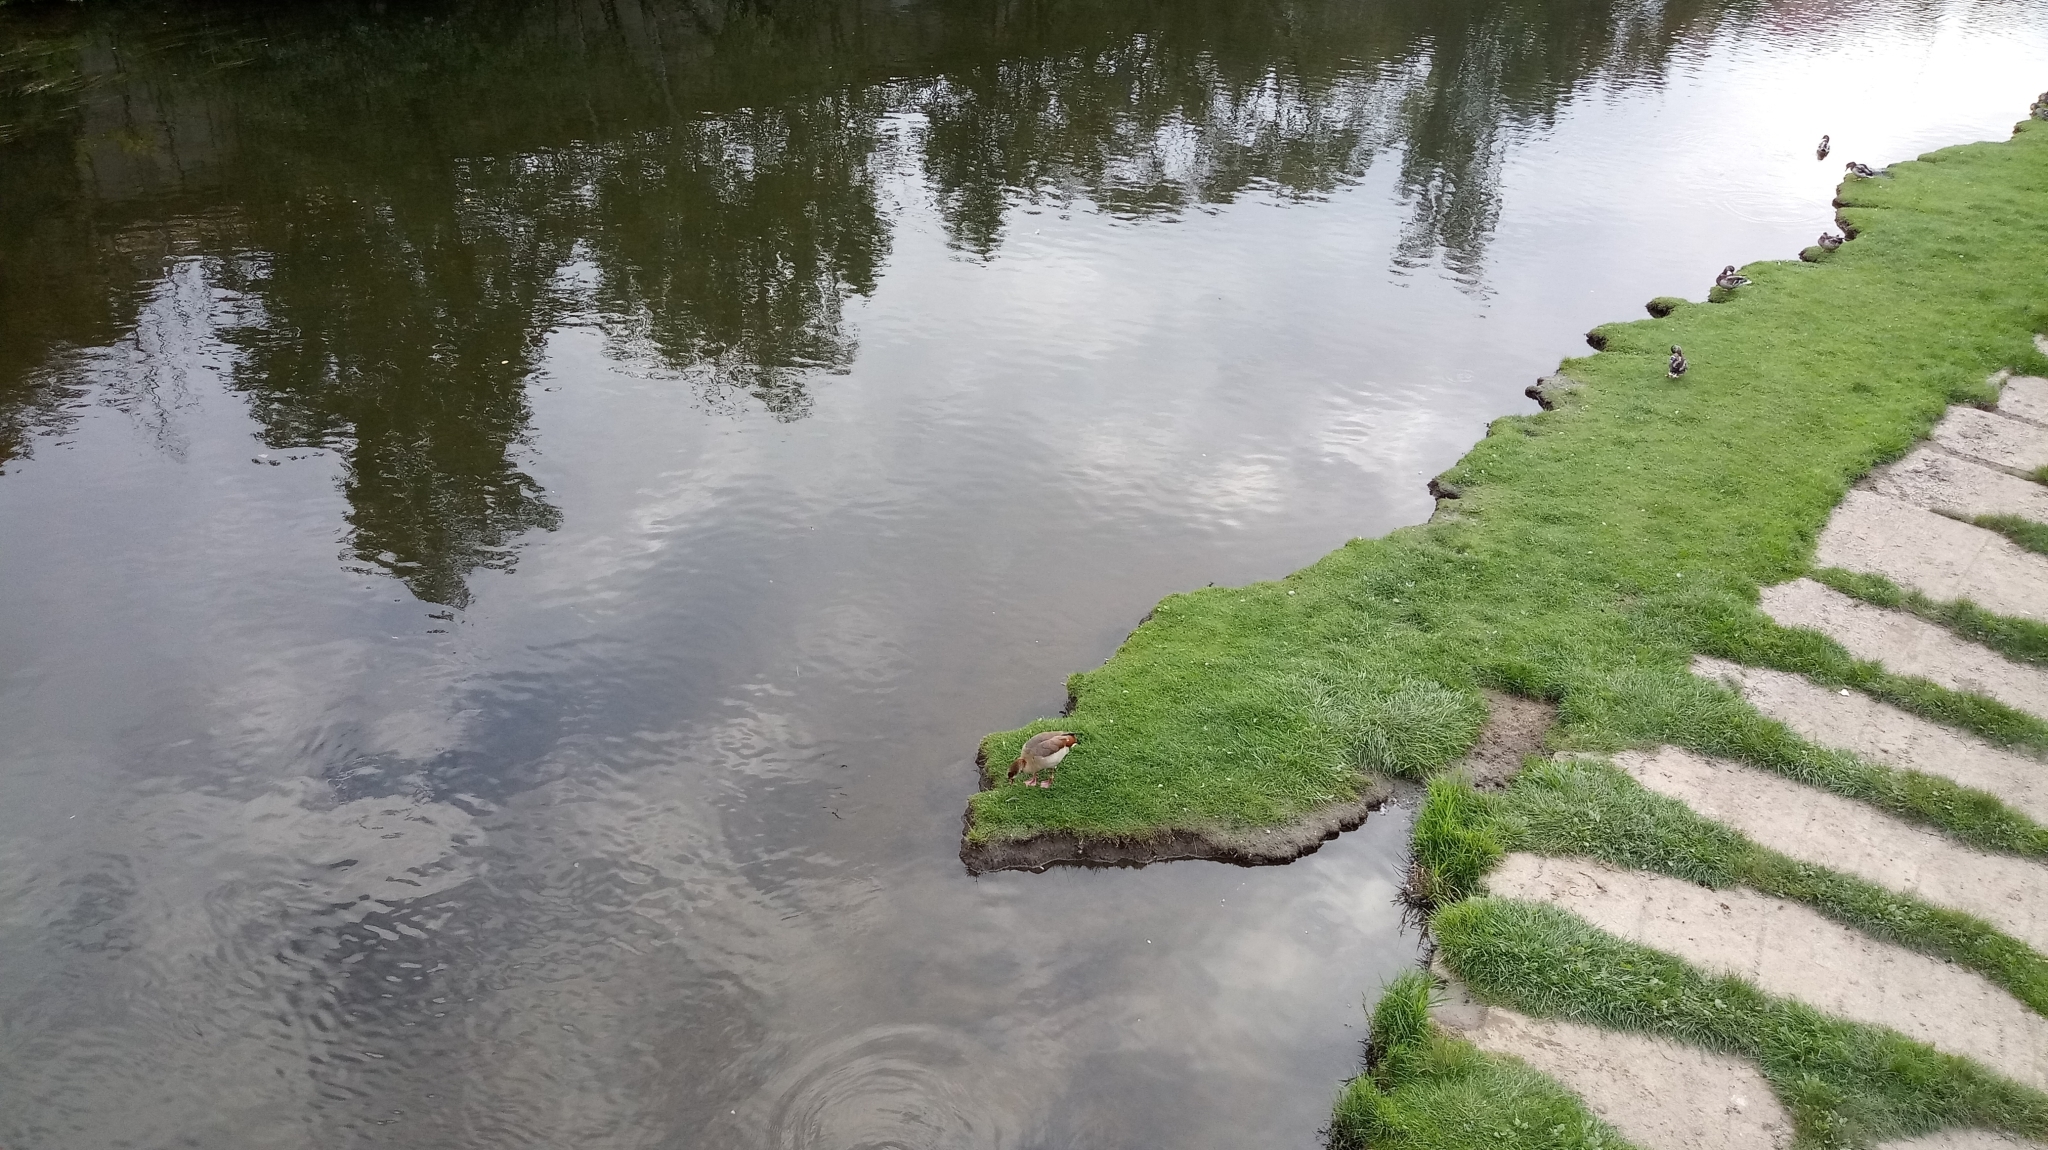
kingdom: Animalia
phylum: Chordata
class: Aves
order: Anseriformes
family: Anatidae
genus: Alopochen
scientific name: Alopochen aegyptiaca
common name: Egyptian goose
